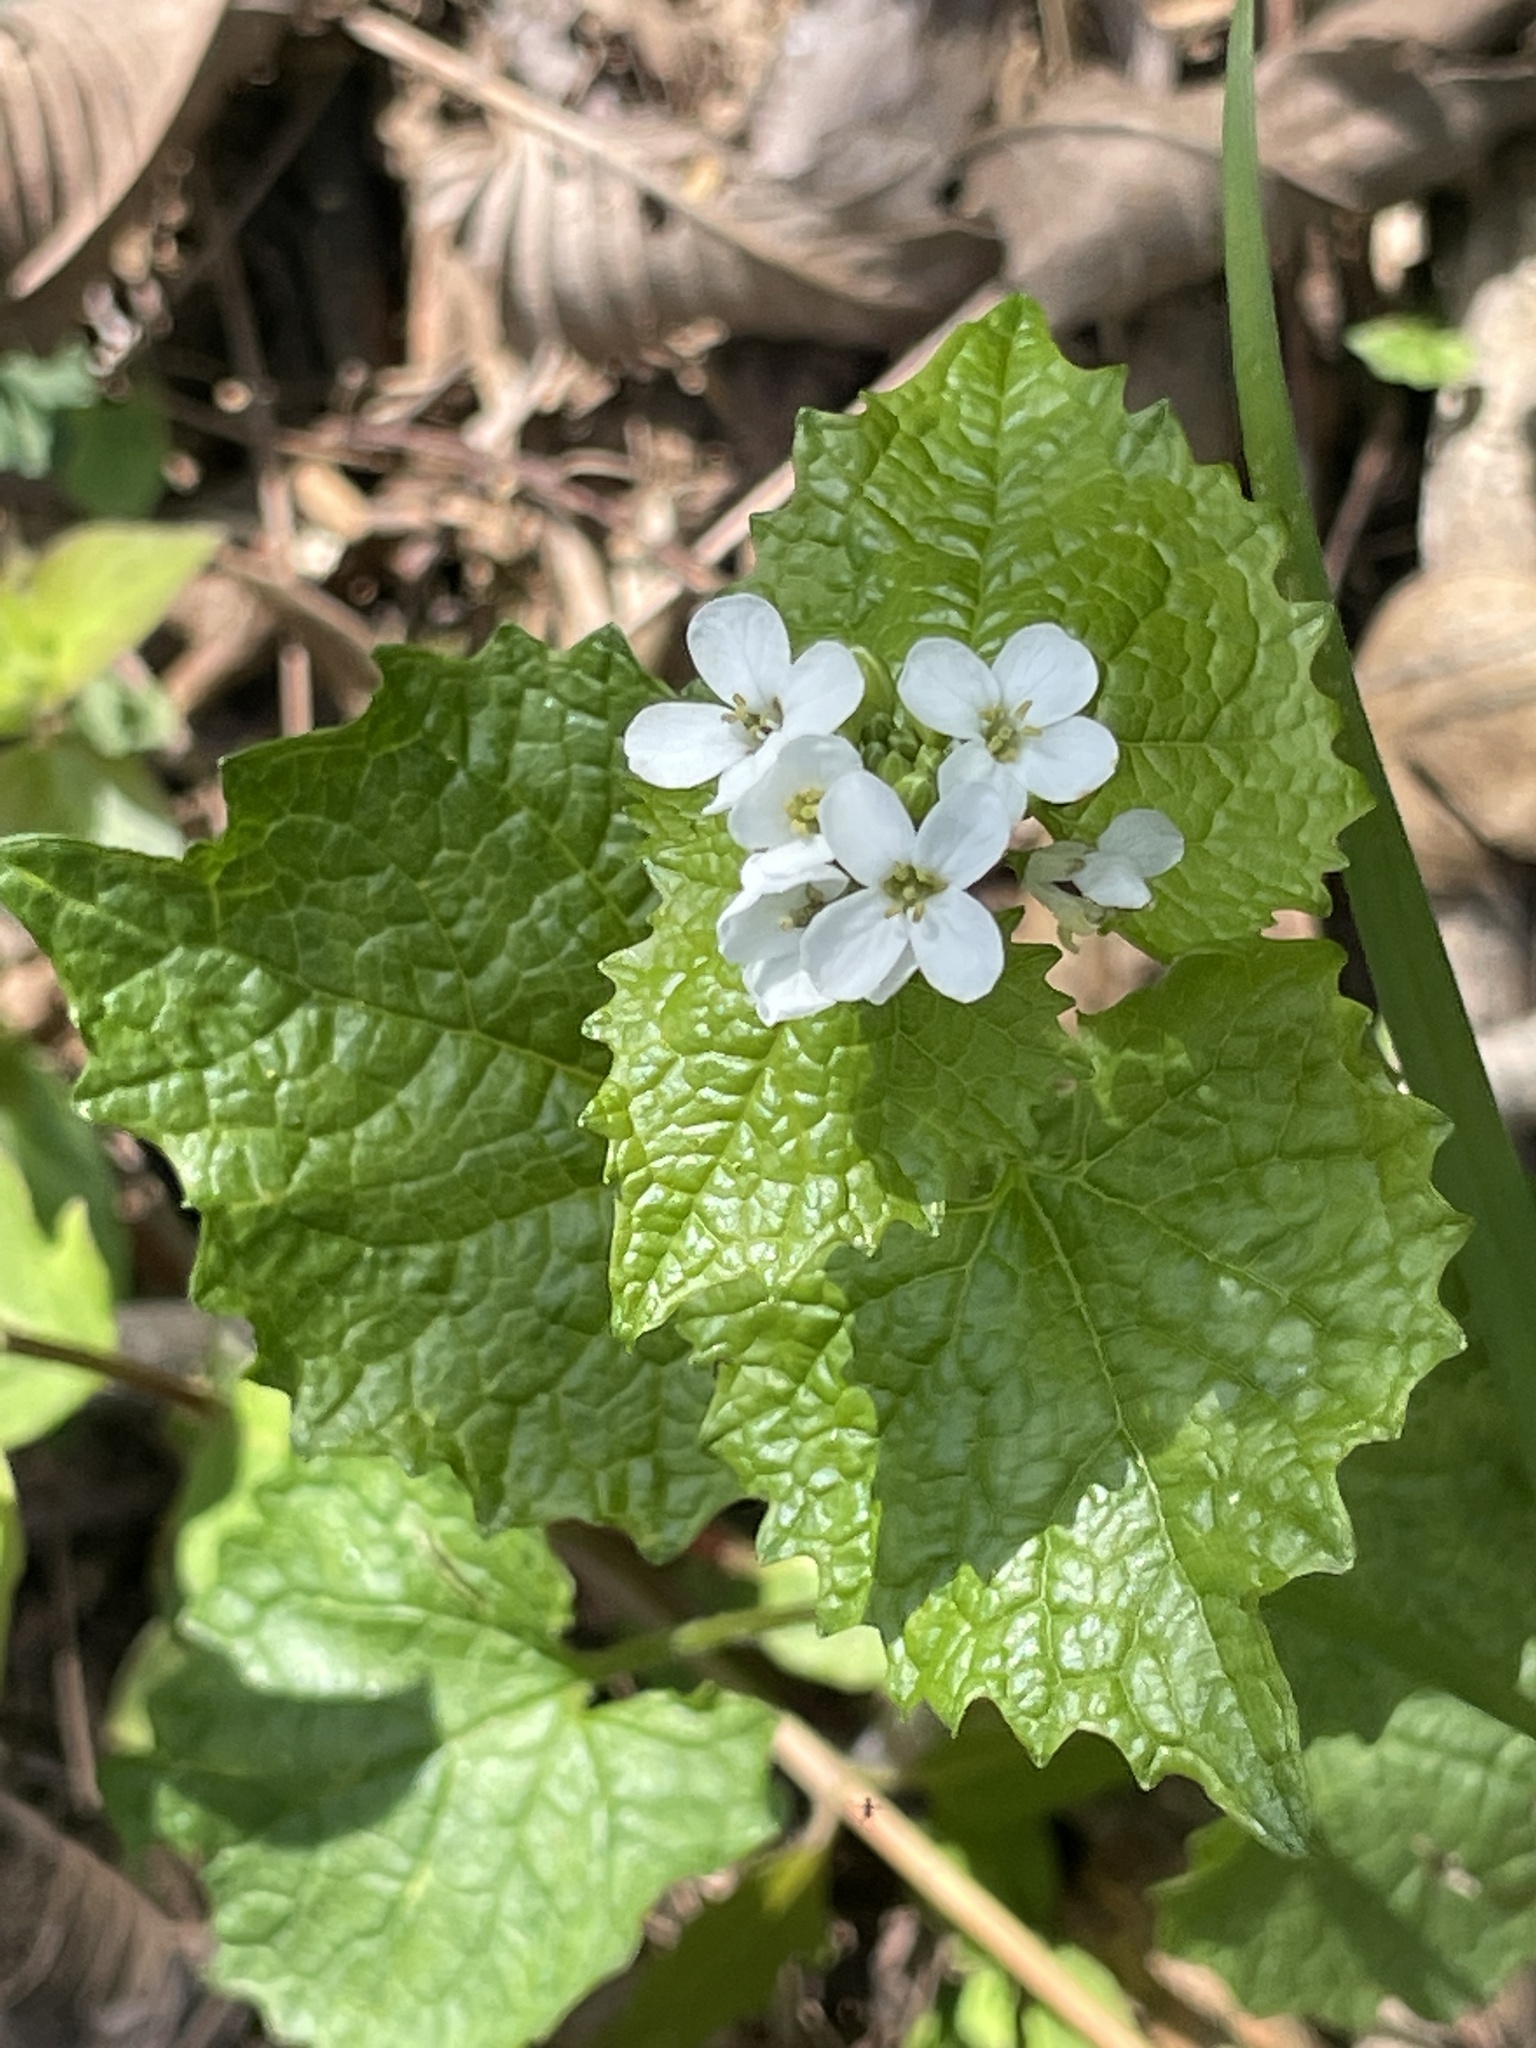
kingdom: Plantae
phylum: Tracheophyta
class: Magnoliopsida
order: Brassicales
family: Brassicaceae
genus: Alliaria
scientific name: Alliaria petiolata
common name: Garlic mustard
